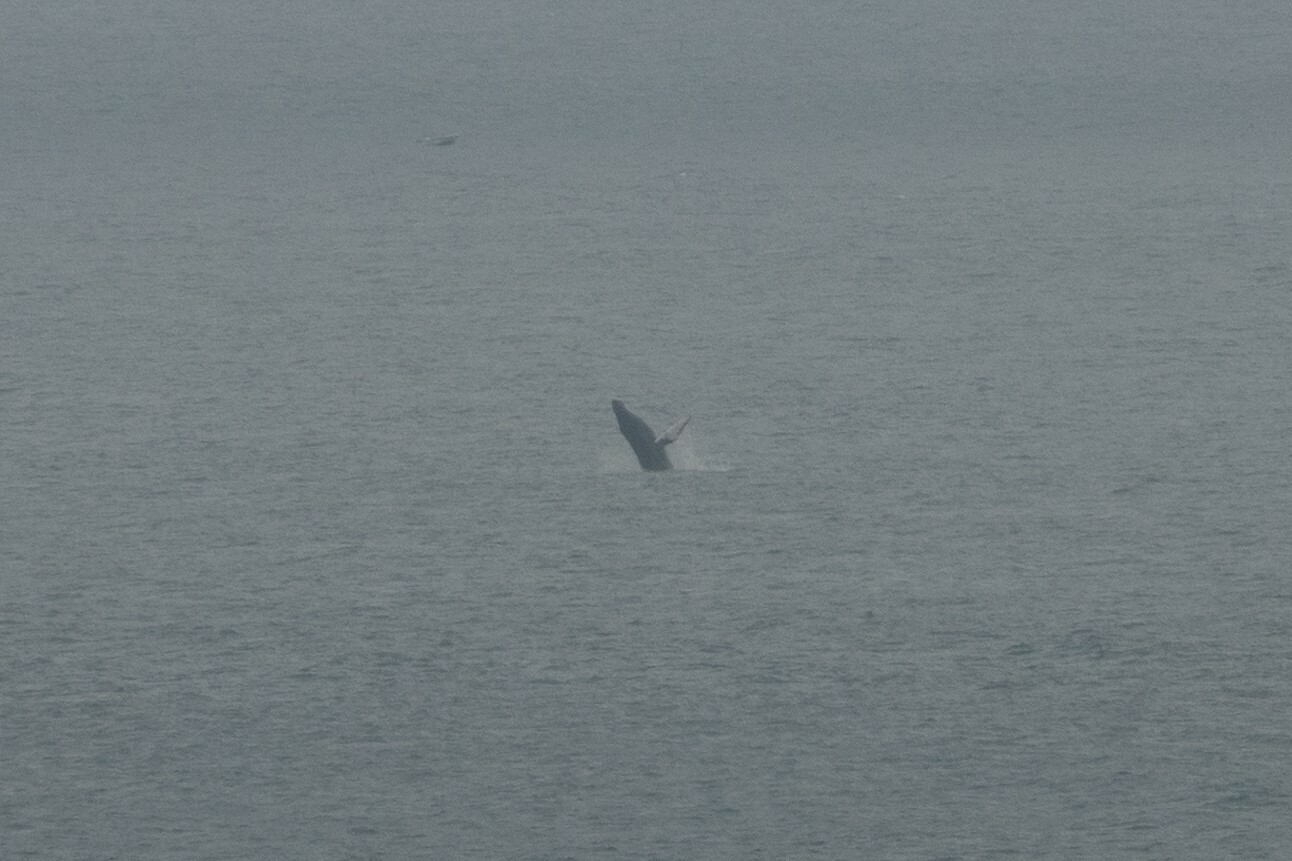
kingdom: Animalia
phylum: Chordata
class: Mammalia
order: Cetacea
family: Balaenopteridae
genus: Megaptera
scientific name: Megaptera novaeangliae
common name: Humpback whale
